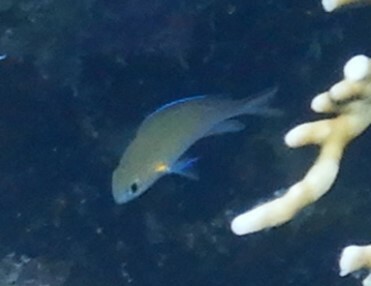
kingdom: Animalia
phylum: Chordata
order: Perciformes
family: Pomacentridae
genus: Chromis
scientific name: Chromis flavaxilla
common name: Arabian chromis
